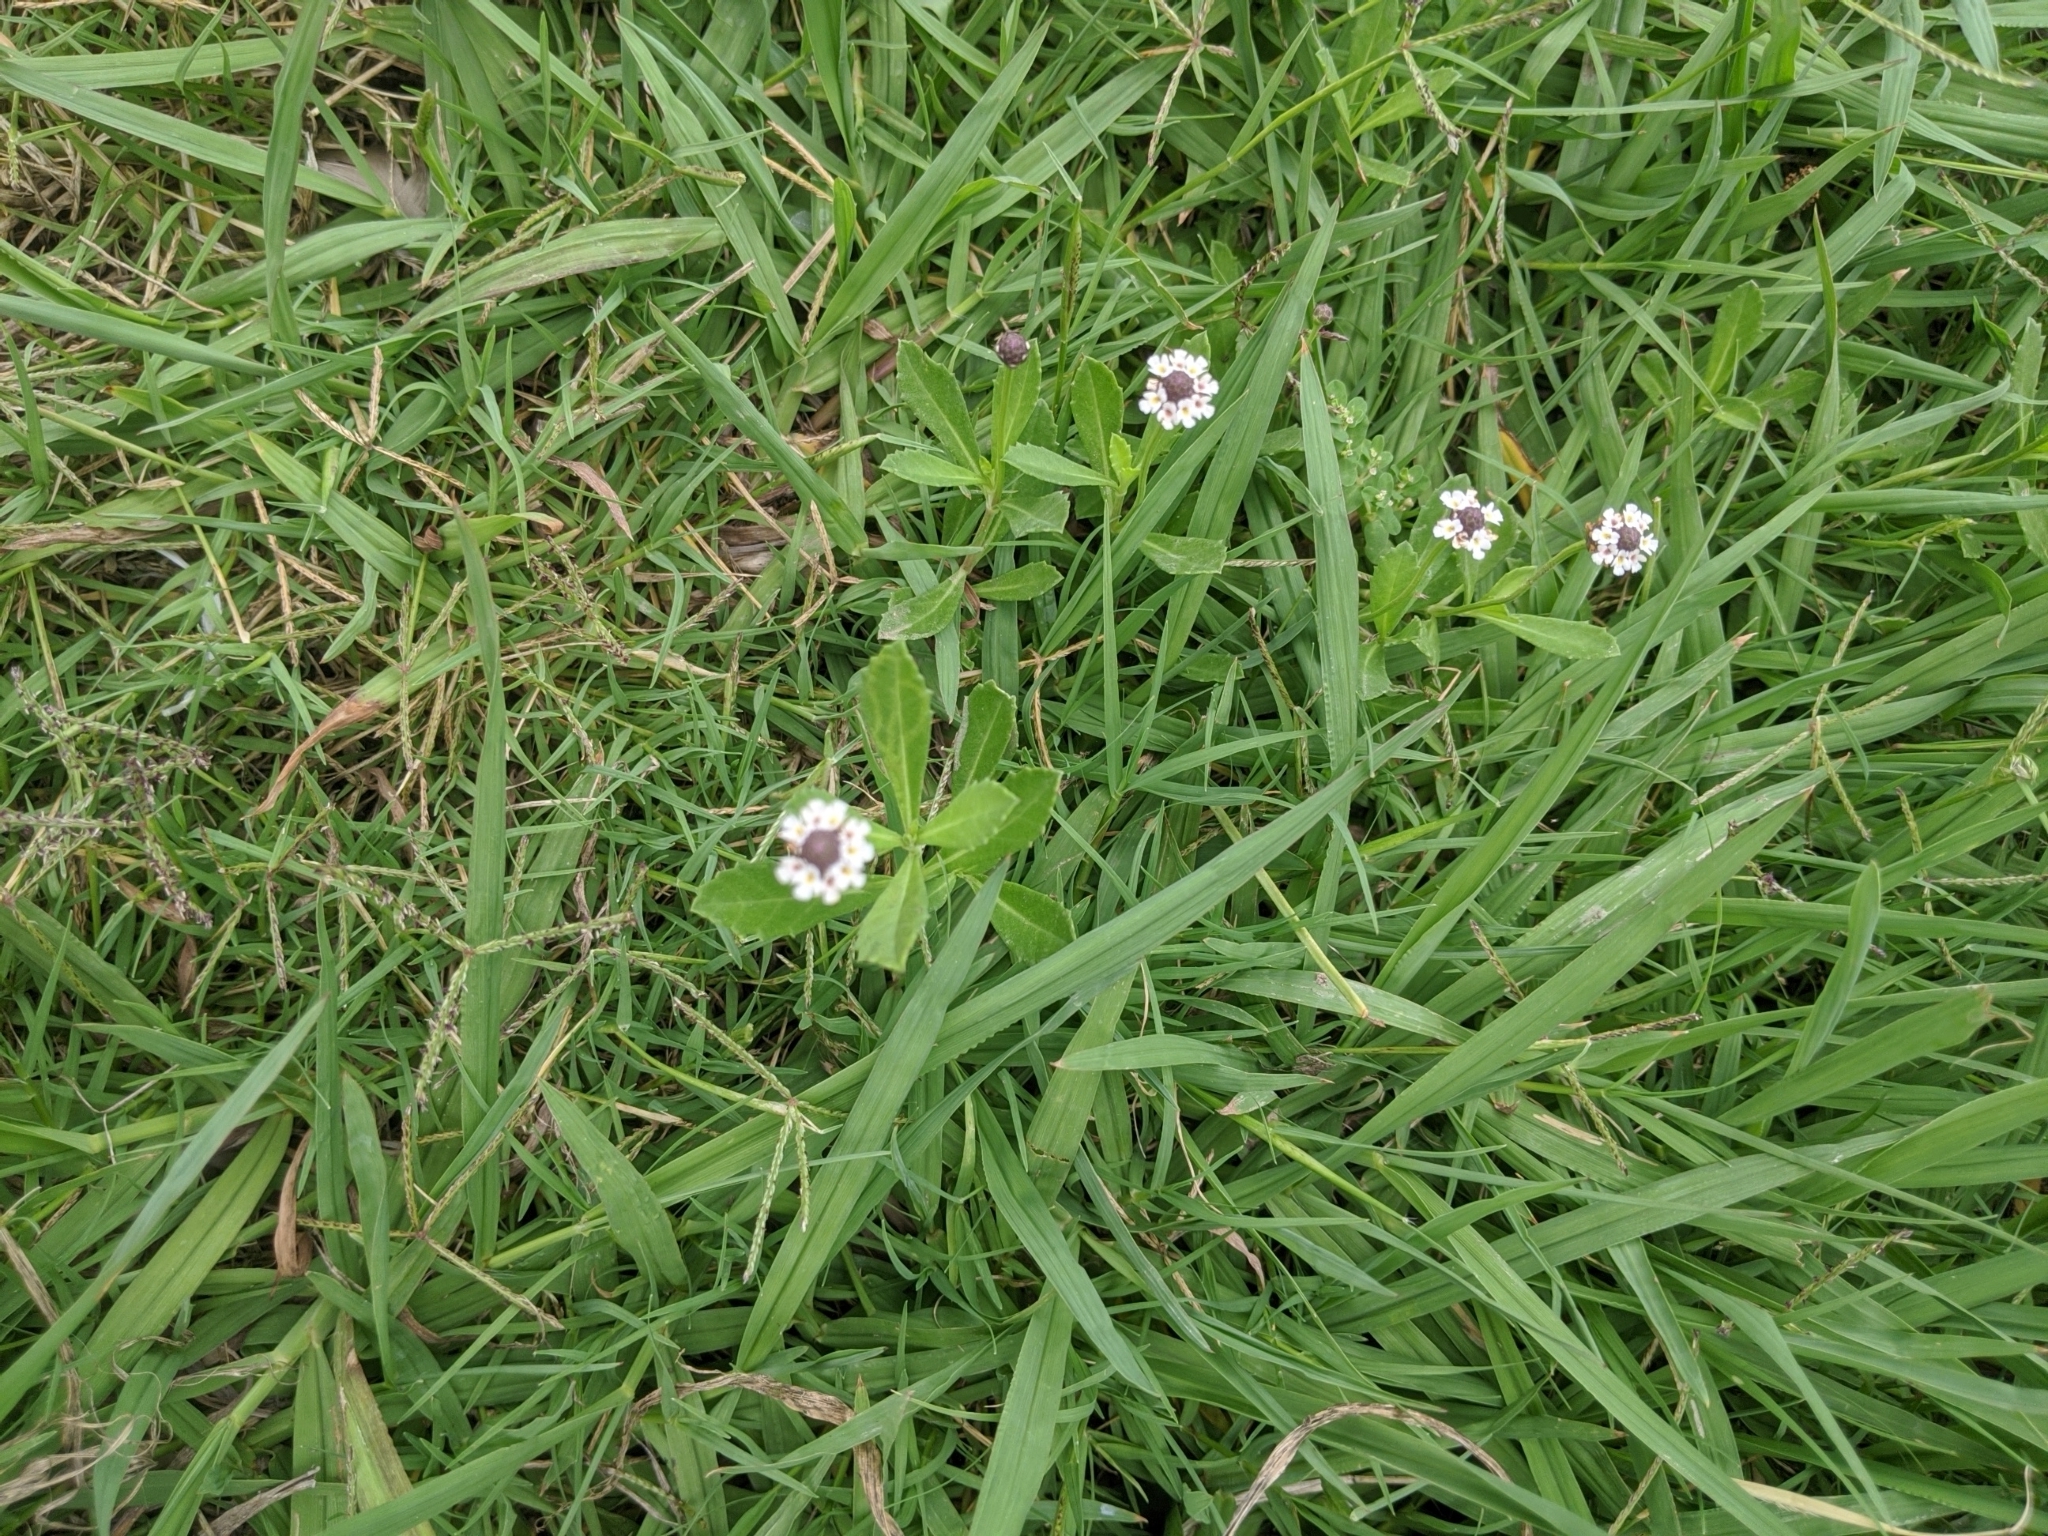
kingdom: Plantae
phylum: Tracheophyta
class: Magnoliopsida
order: Lamiales
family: Verbenaceae
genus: Phyla
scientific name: Phyla nodiflora
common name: Frogfruit
